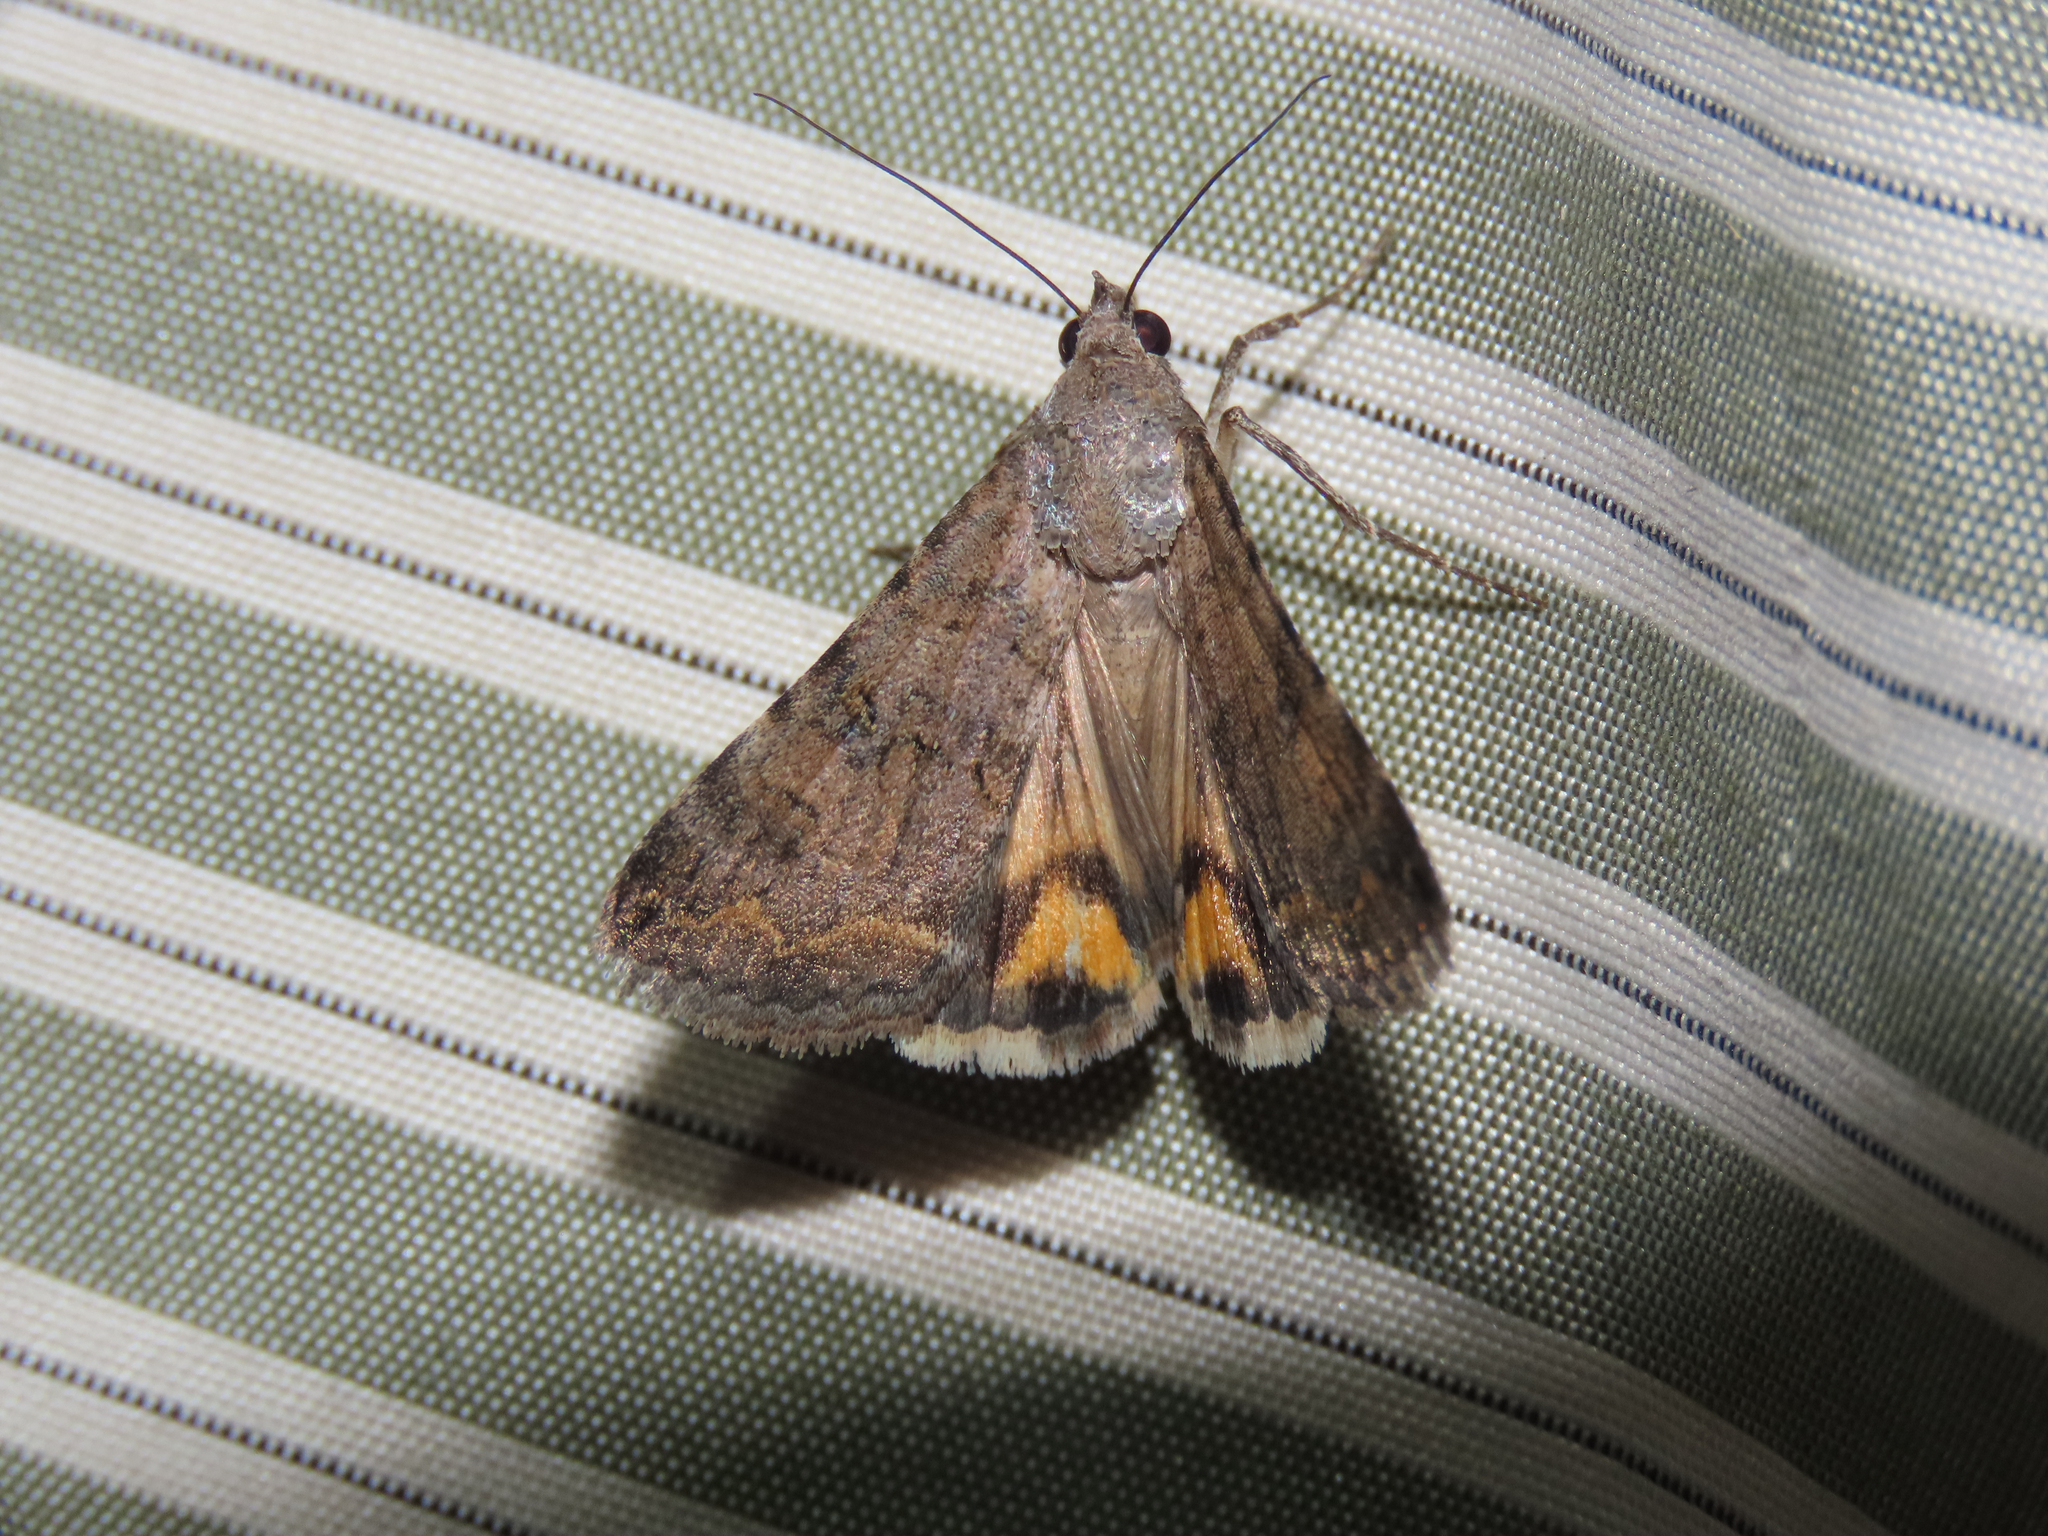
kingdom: Animalia
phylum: Arthropoda
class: Insecta
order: Lepidoptera
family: Erebidae
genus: Bulia
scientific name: Bulia deducta
